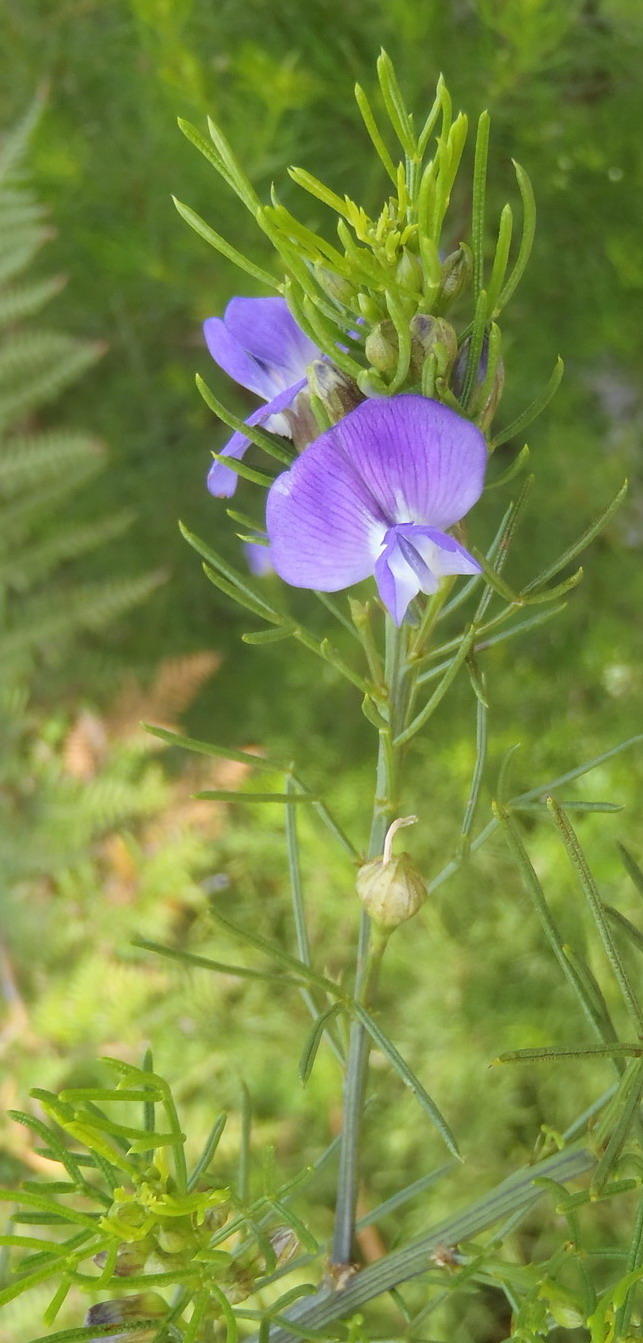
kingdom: Plantae
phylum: Tracheophyta
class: Magnoliopsida
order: Fabales
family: Fabaceae
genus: Psoralea
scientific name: Psoralea laevigata
